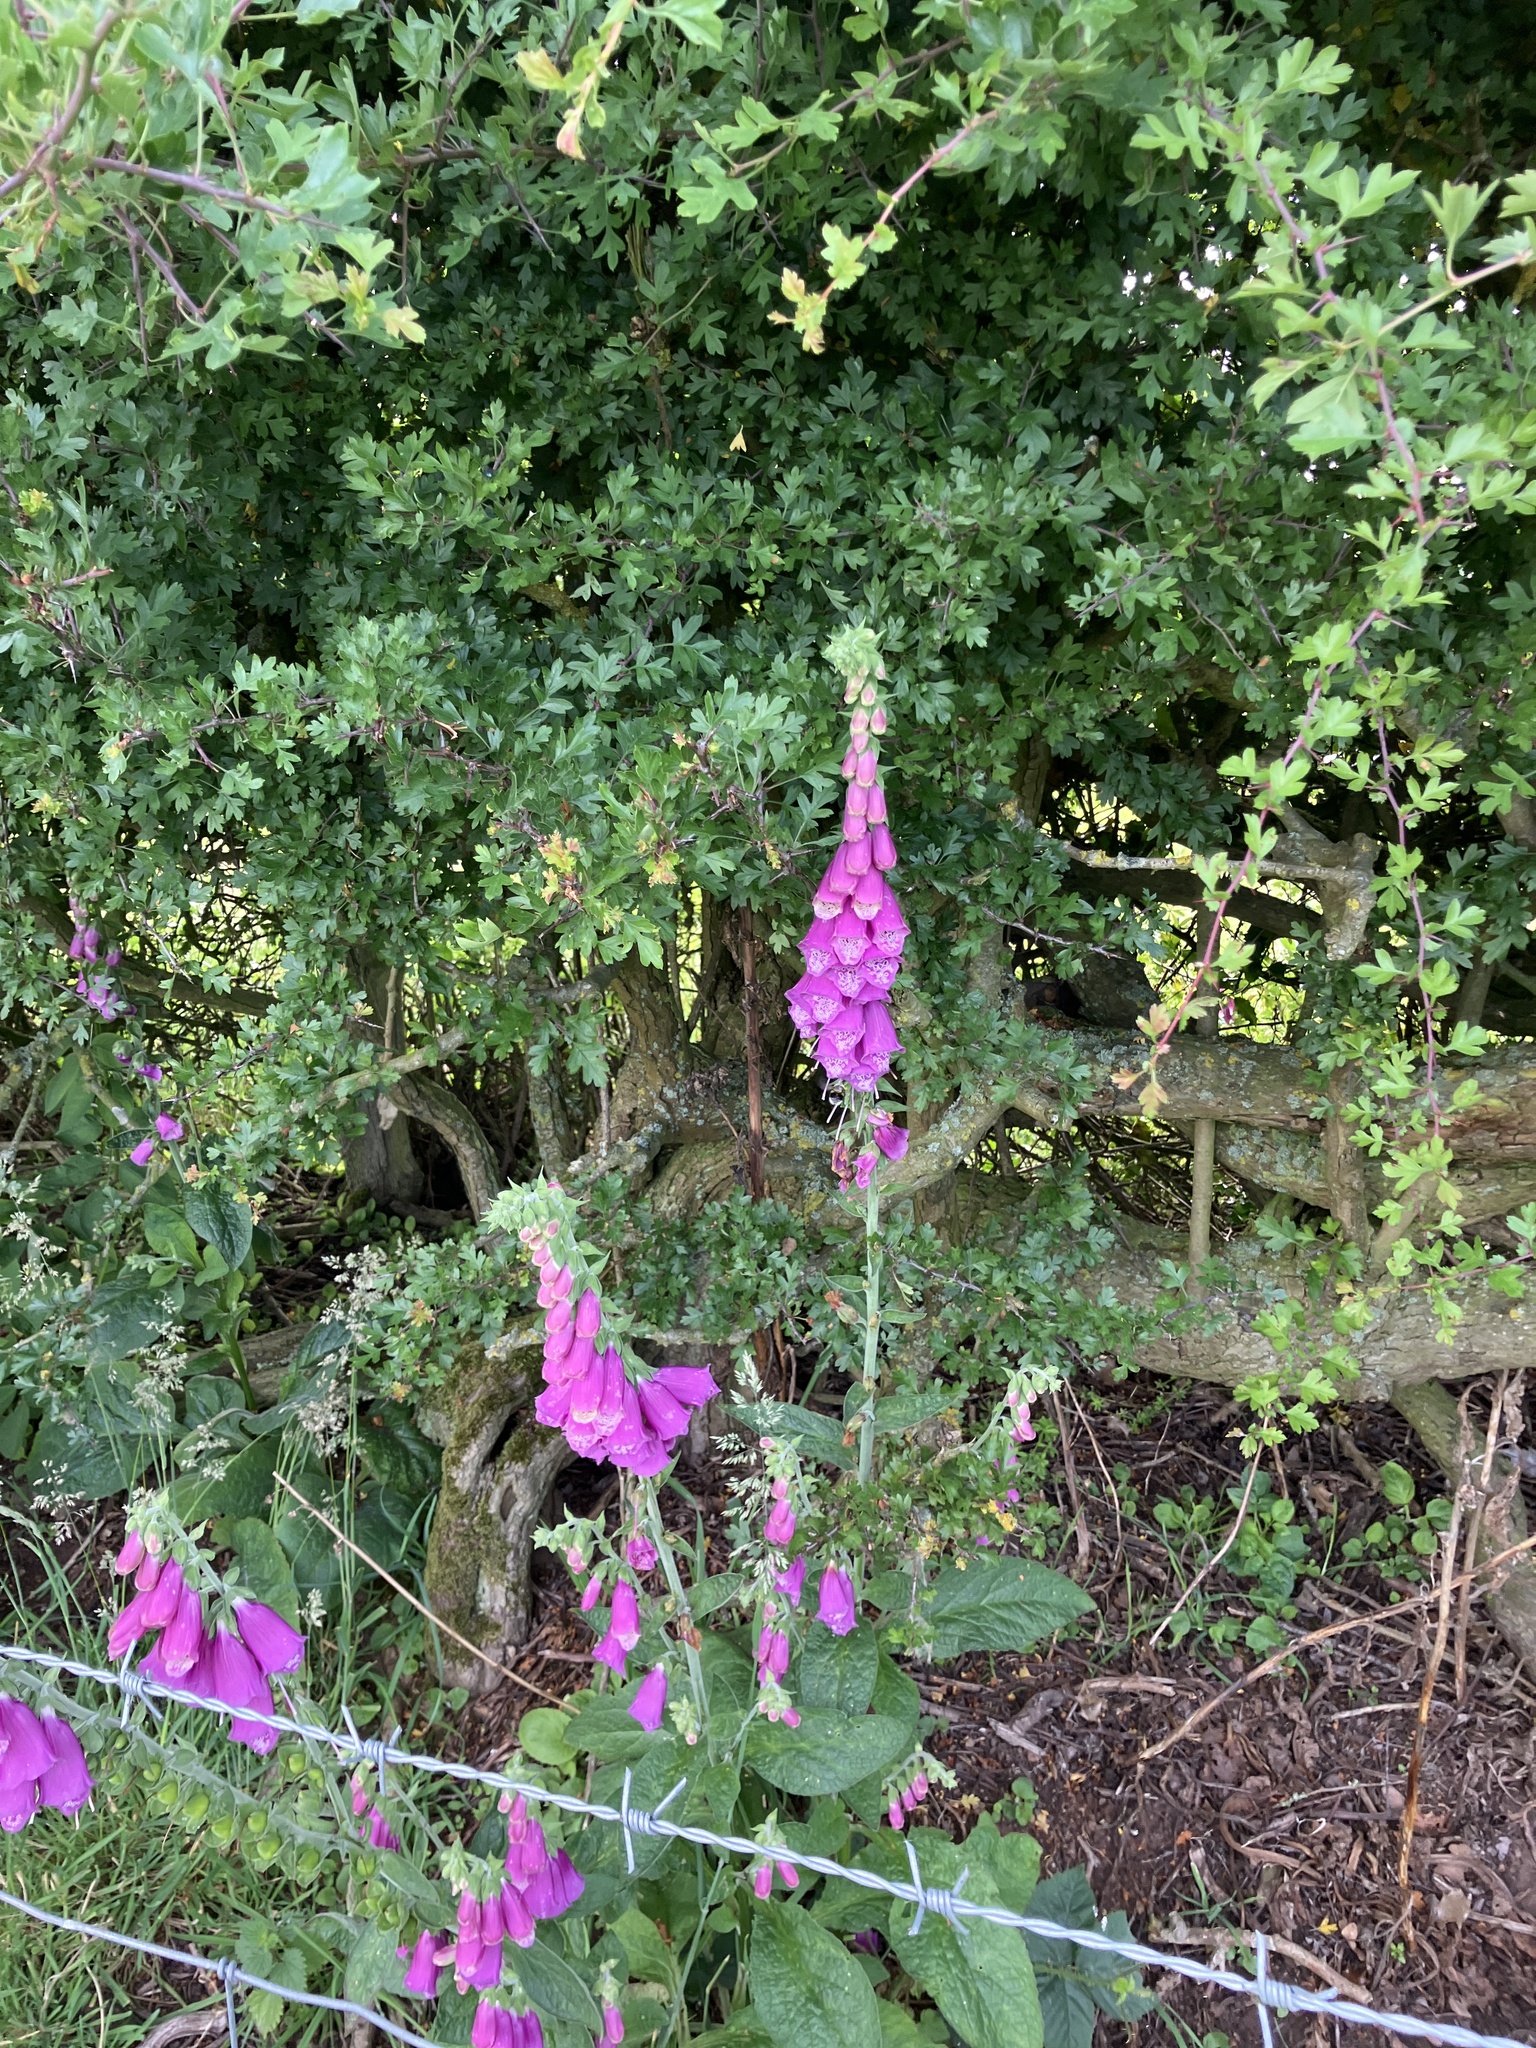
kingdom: Plantae
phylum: Tracheophyta
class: Magnoliopsida
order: Lamiales
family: Plantaginaceae
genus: Digitalis
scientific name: Digitalis purpurea
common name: Foxglove
